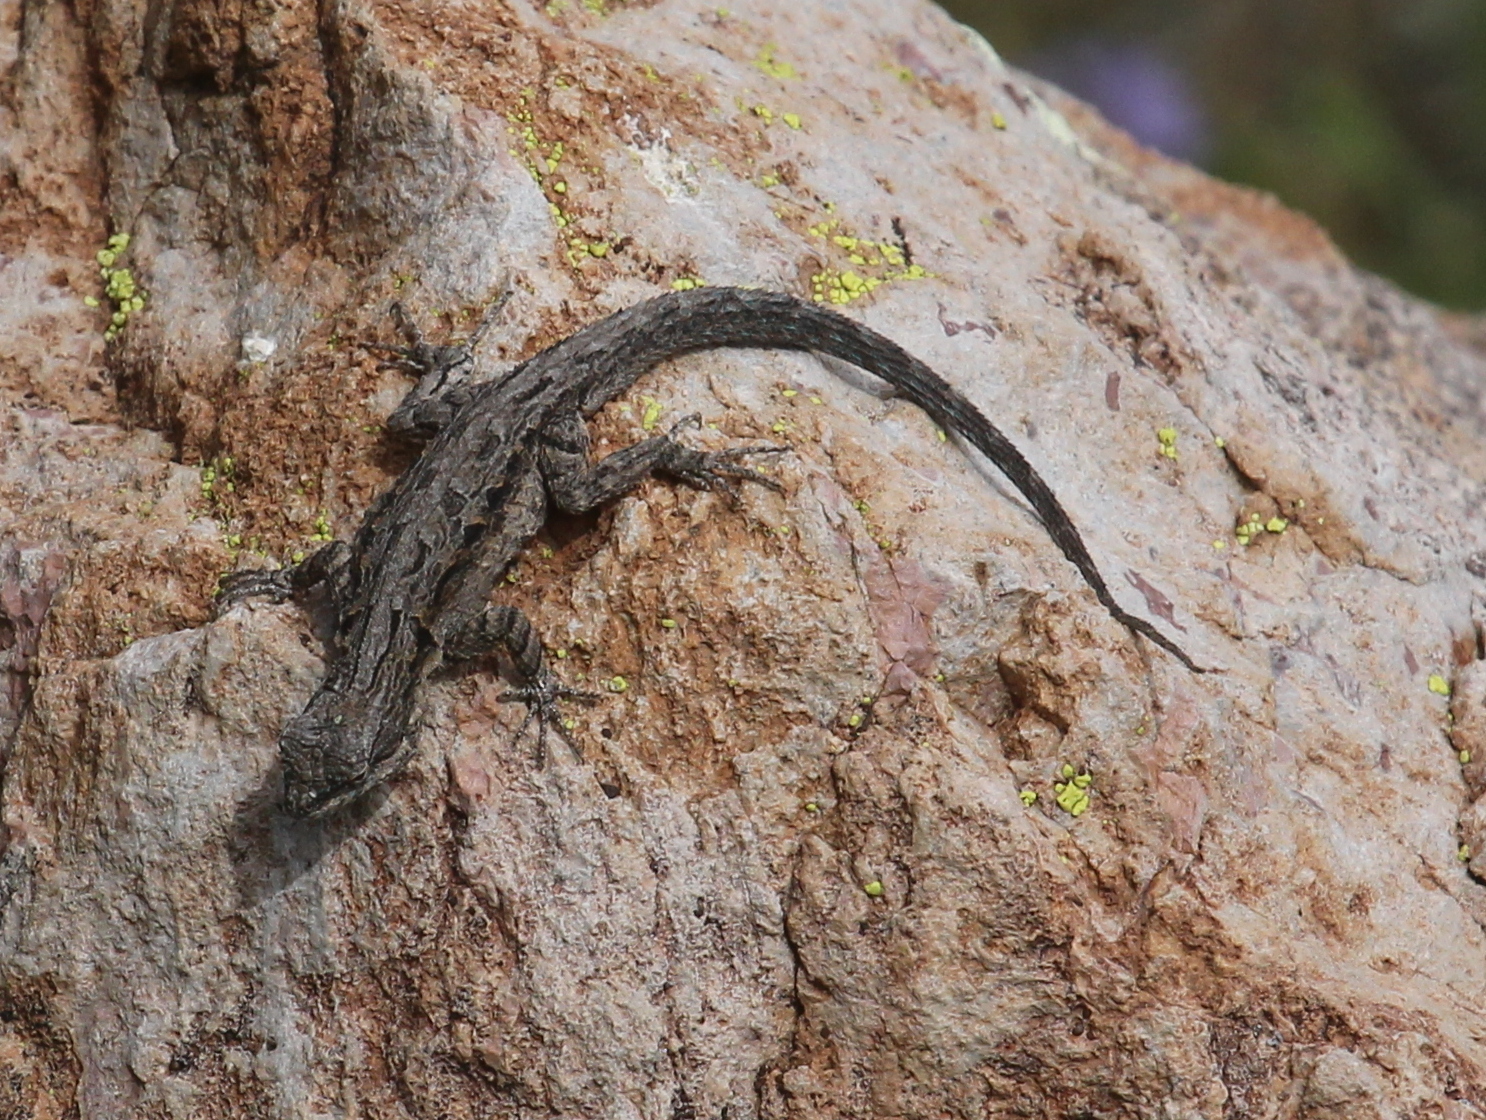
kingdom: Animalia
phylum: Chordata
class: Squamata
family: Phrynosomatidae
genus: Urosaurus
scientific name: Urosaurus ornatus
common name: Ornate tree lizard
